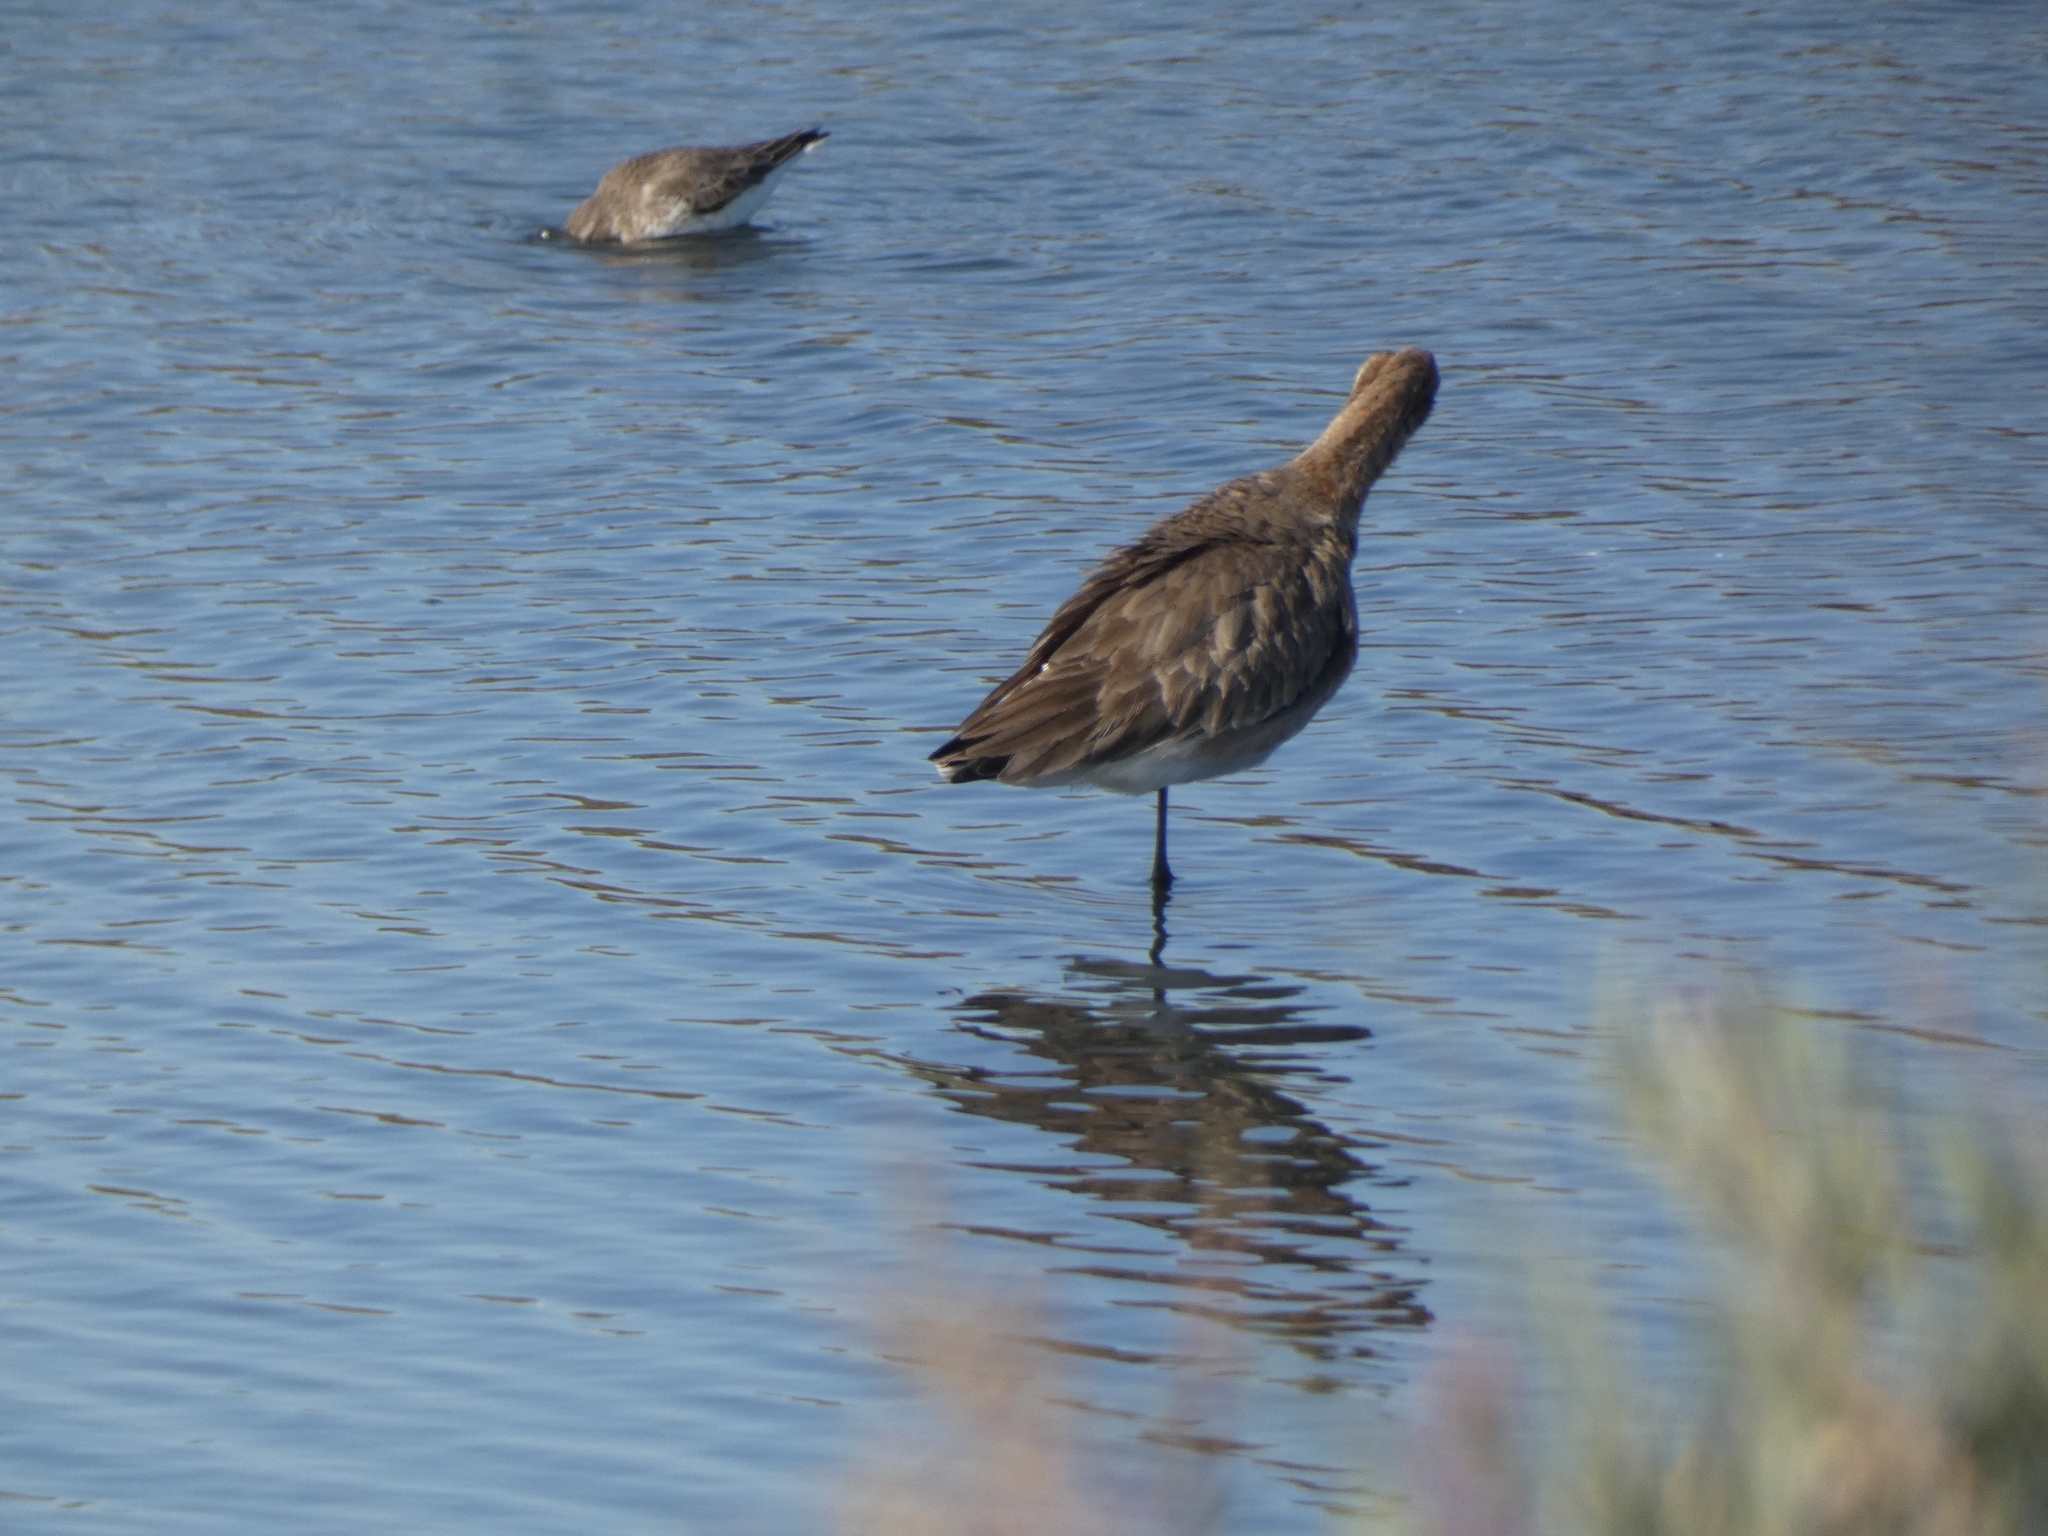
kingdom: Animalia
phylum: Chordata
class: Aves
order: Charadriiformes
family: Scolopacidae
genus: Limosa
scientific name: Limosa limosa
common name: Black-tailed godwit
